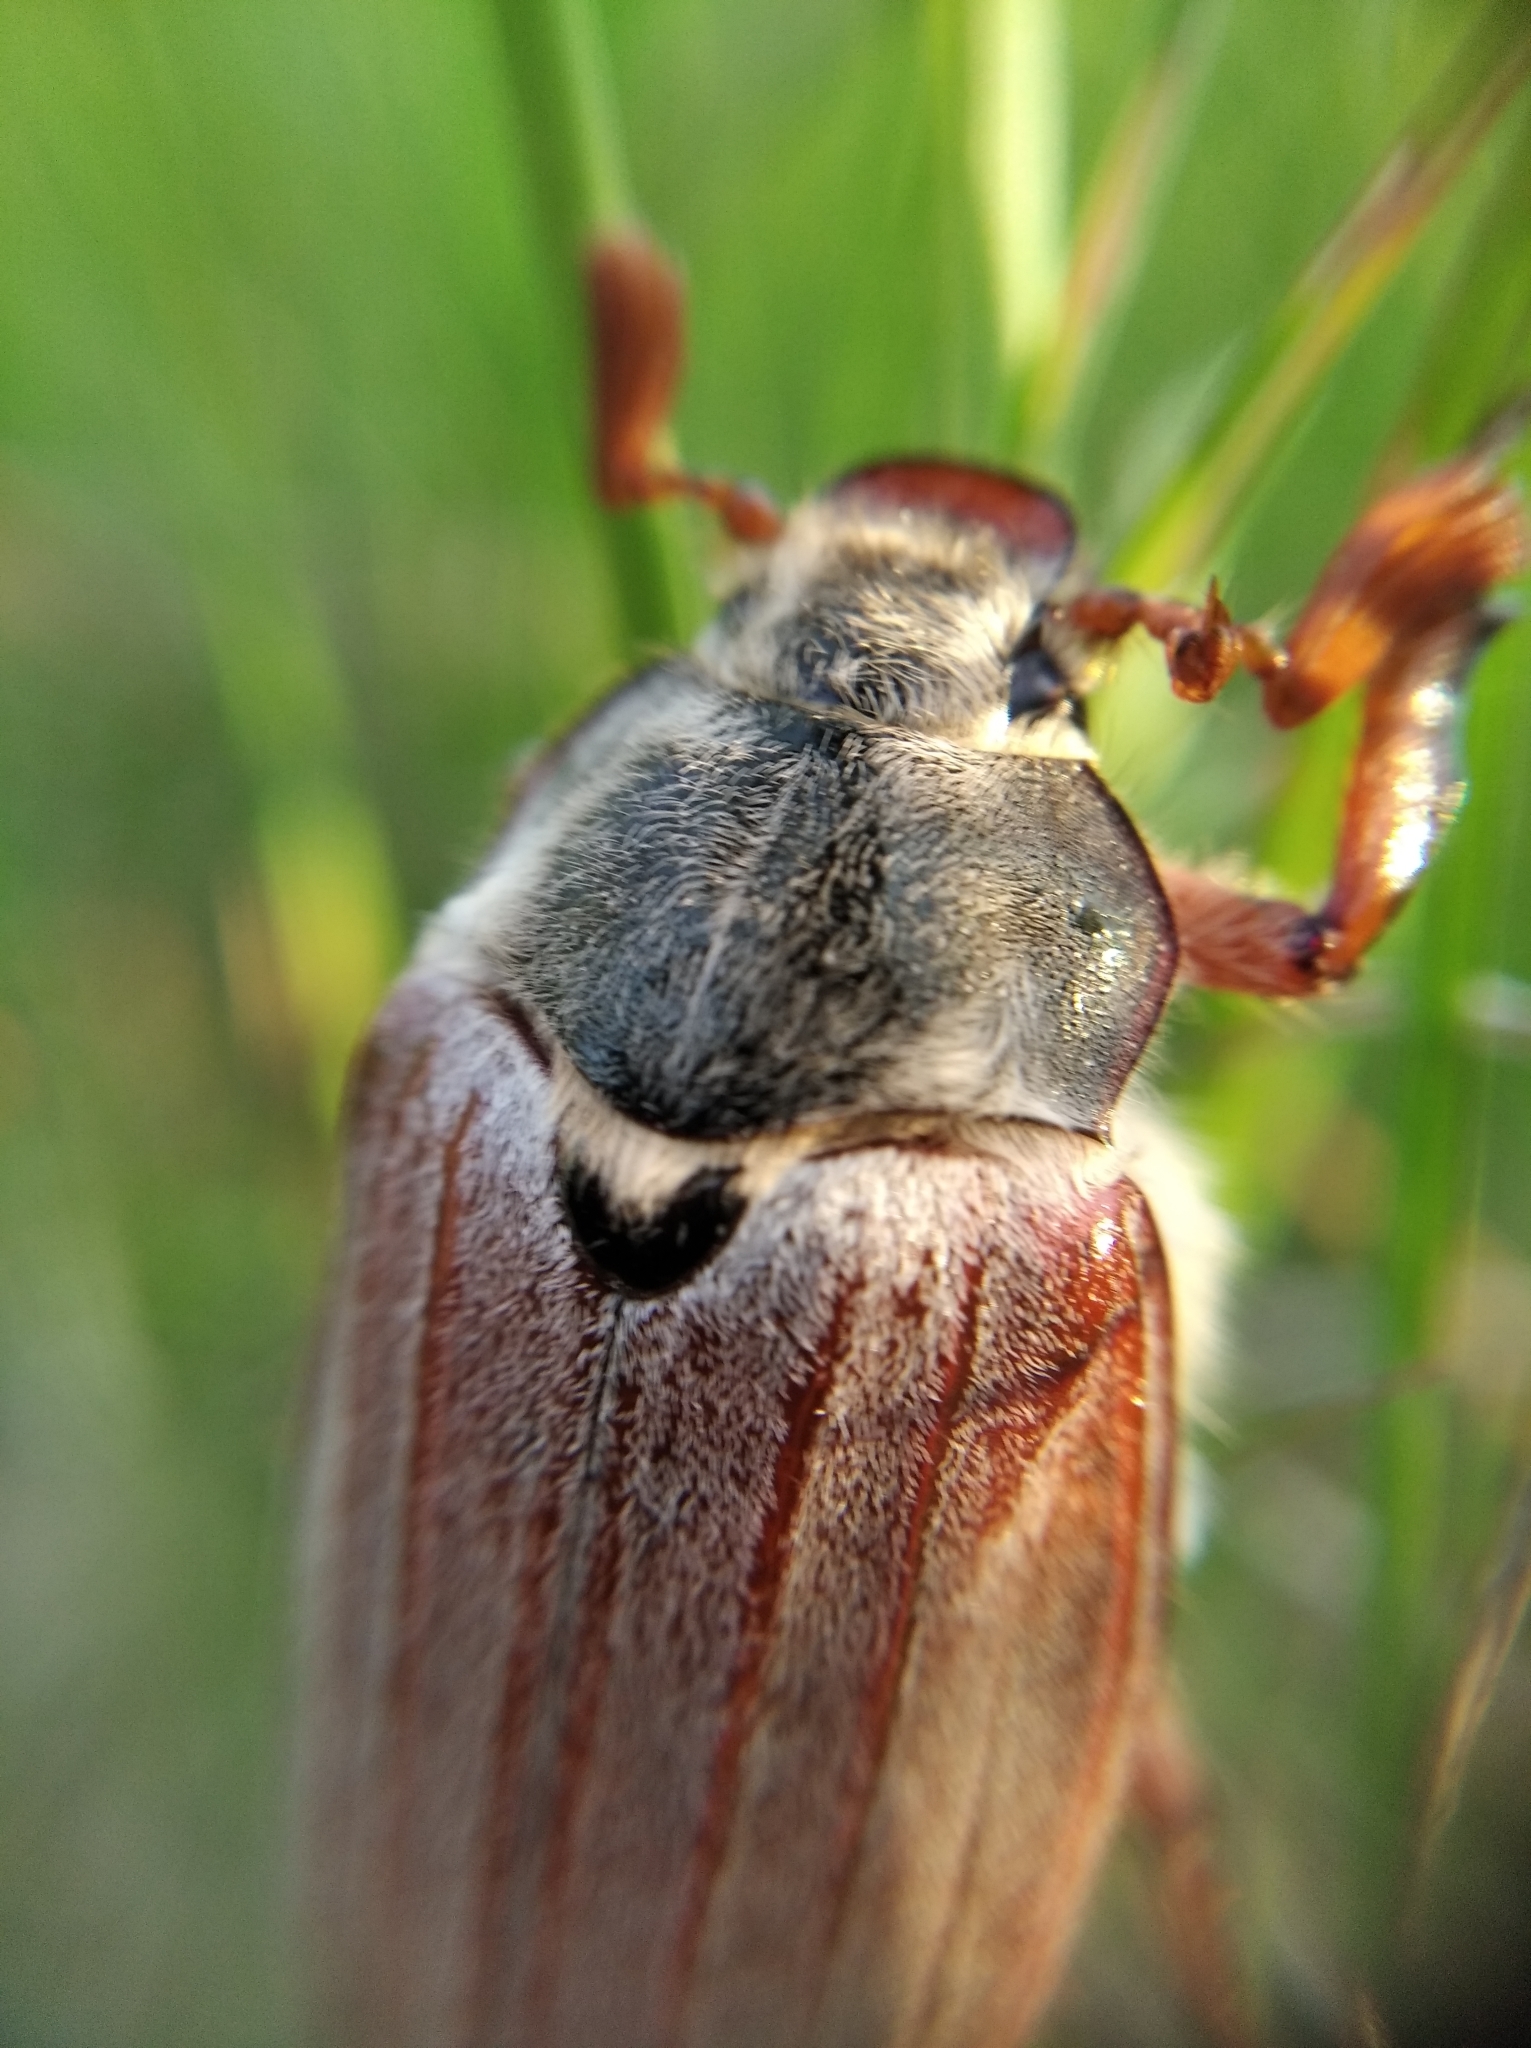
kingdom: Animalia
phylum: Arthropoda
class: Insecta
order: Coleoptera
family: Scarabaeidae
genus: Melolontha
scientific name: Melolontha melolontha
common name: Cockchafer maybeetle
